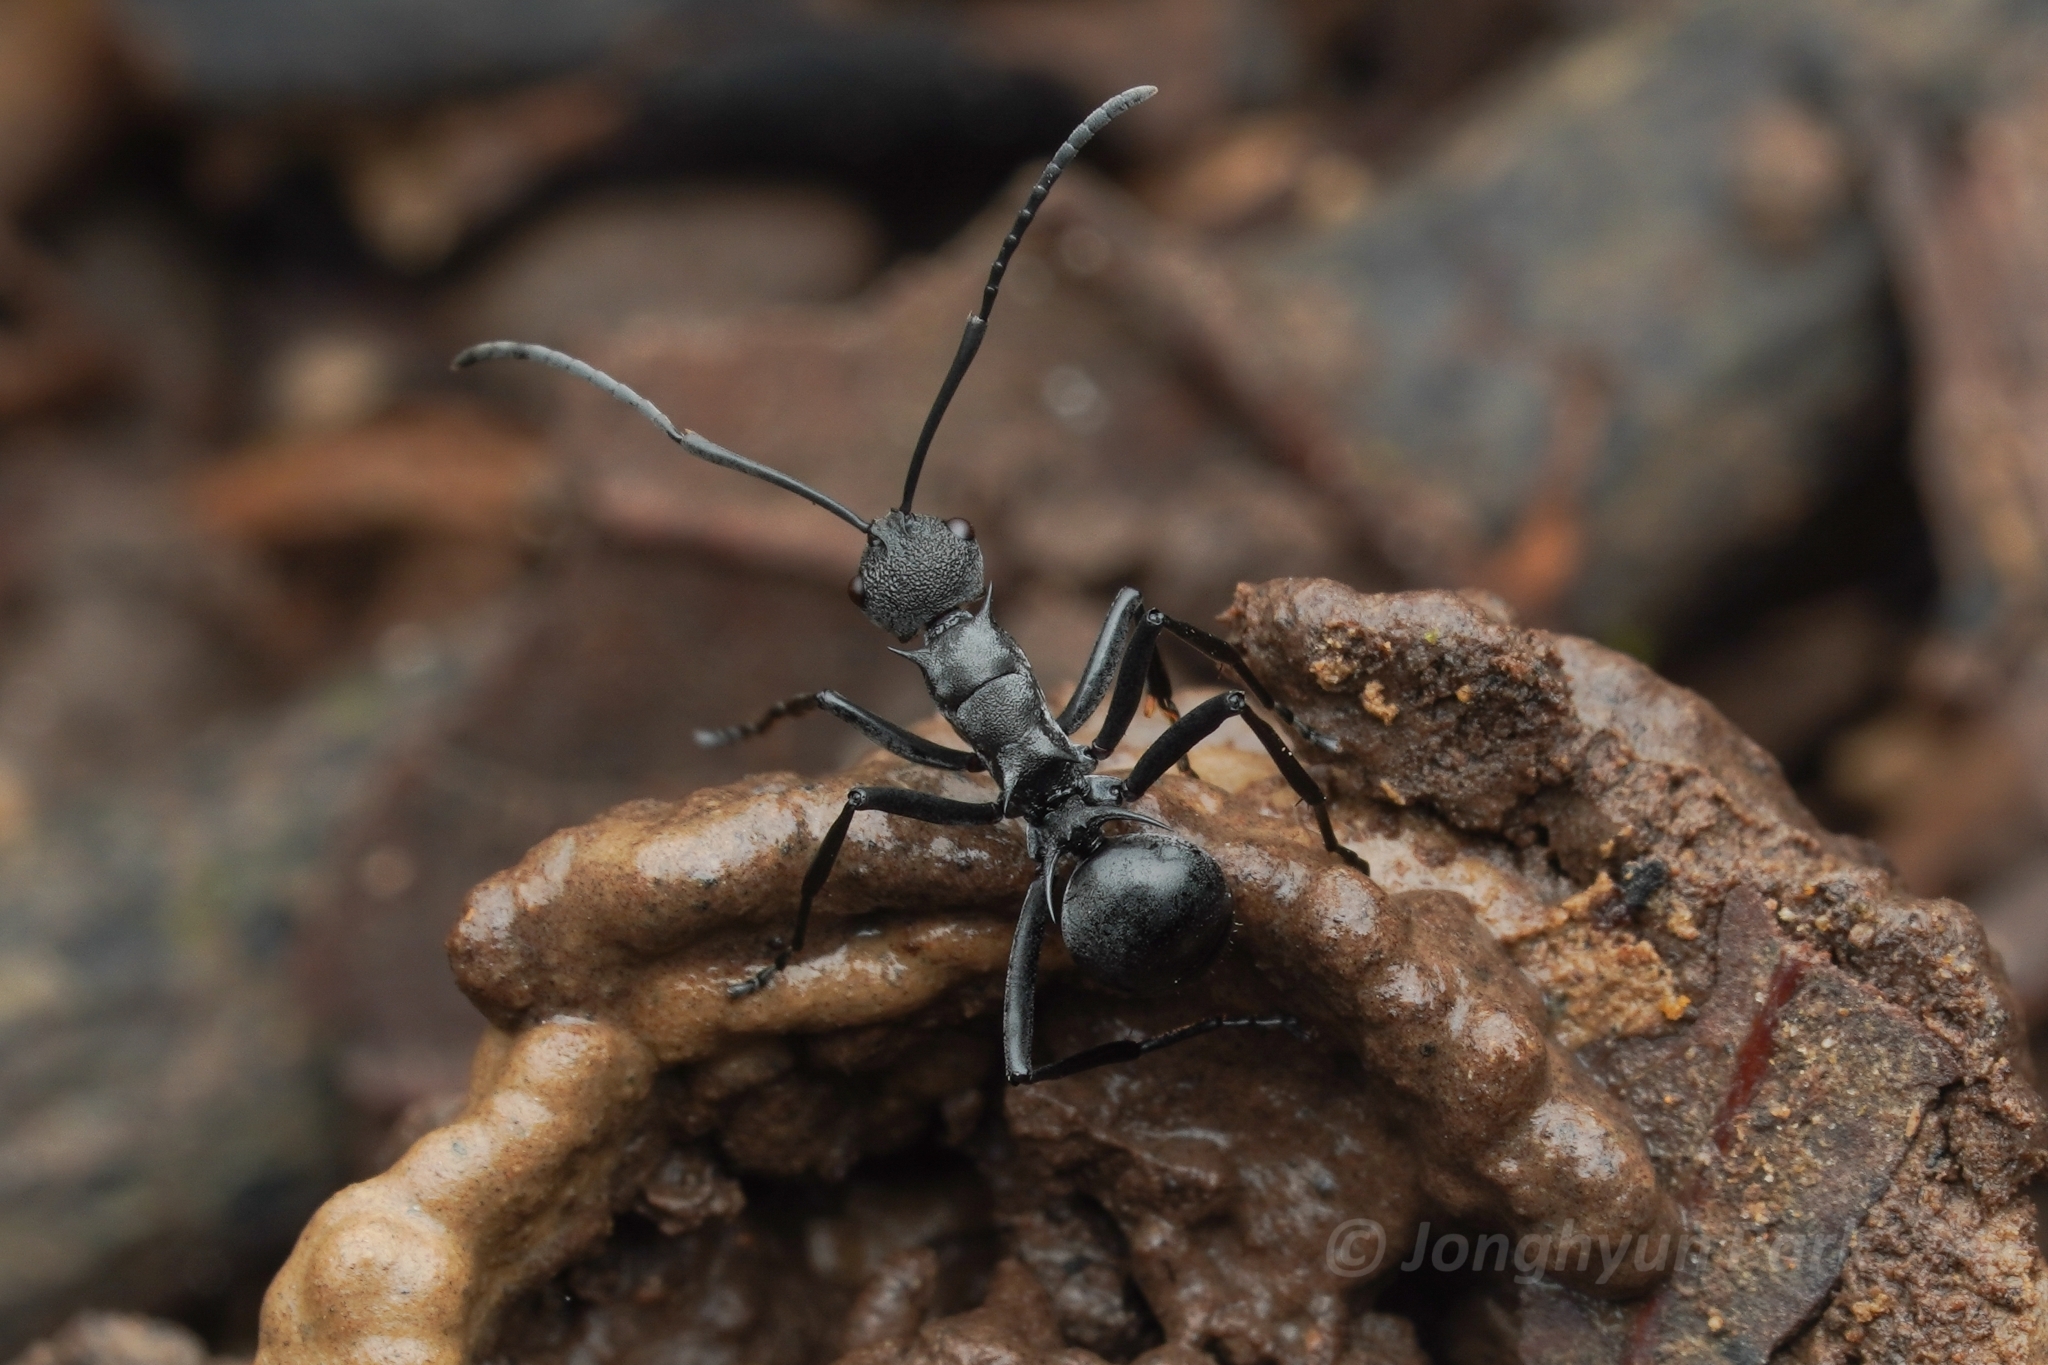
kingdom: Animalia
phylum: Arthropoda
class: Insecta
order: Hymenoptera
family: Formicidae
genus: Polyrhachis
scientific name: Polyrhachis wheeleri
